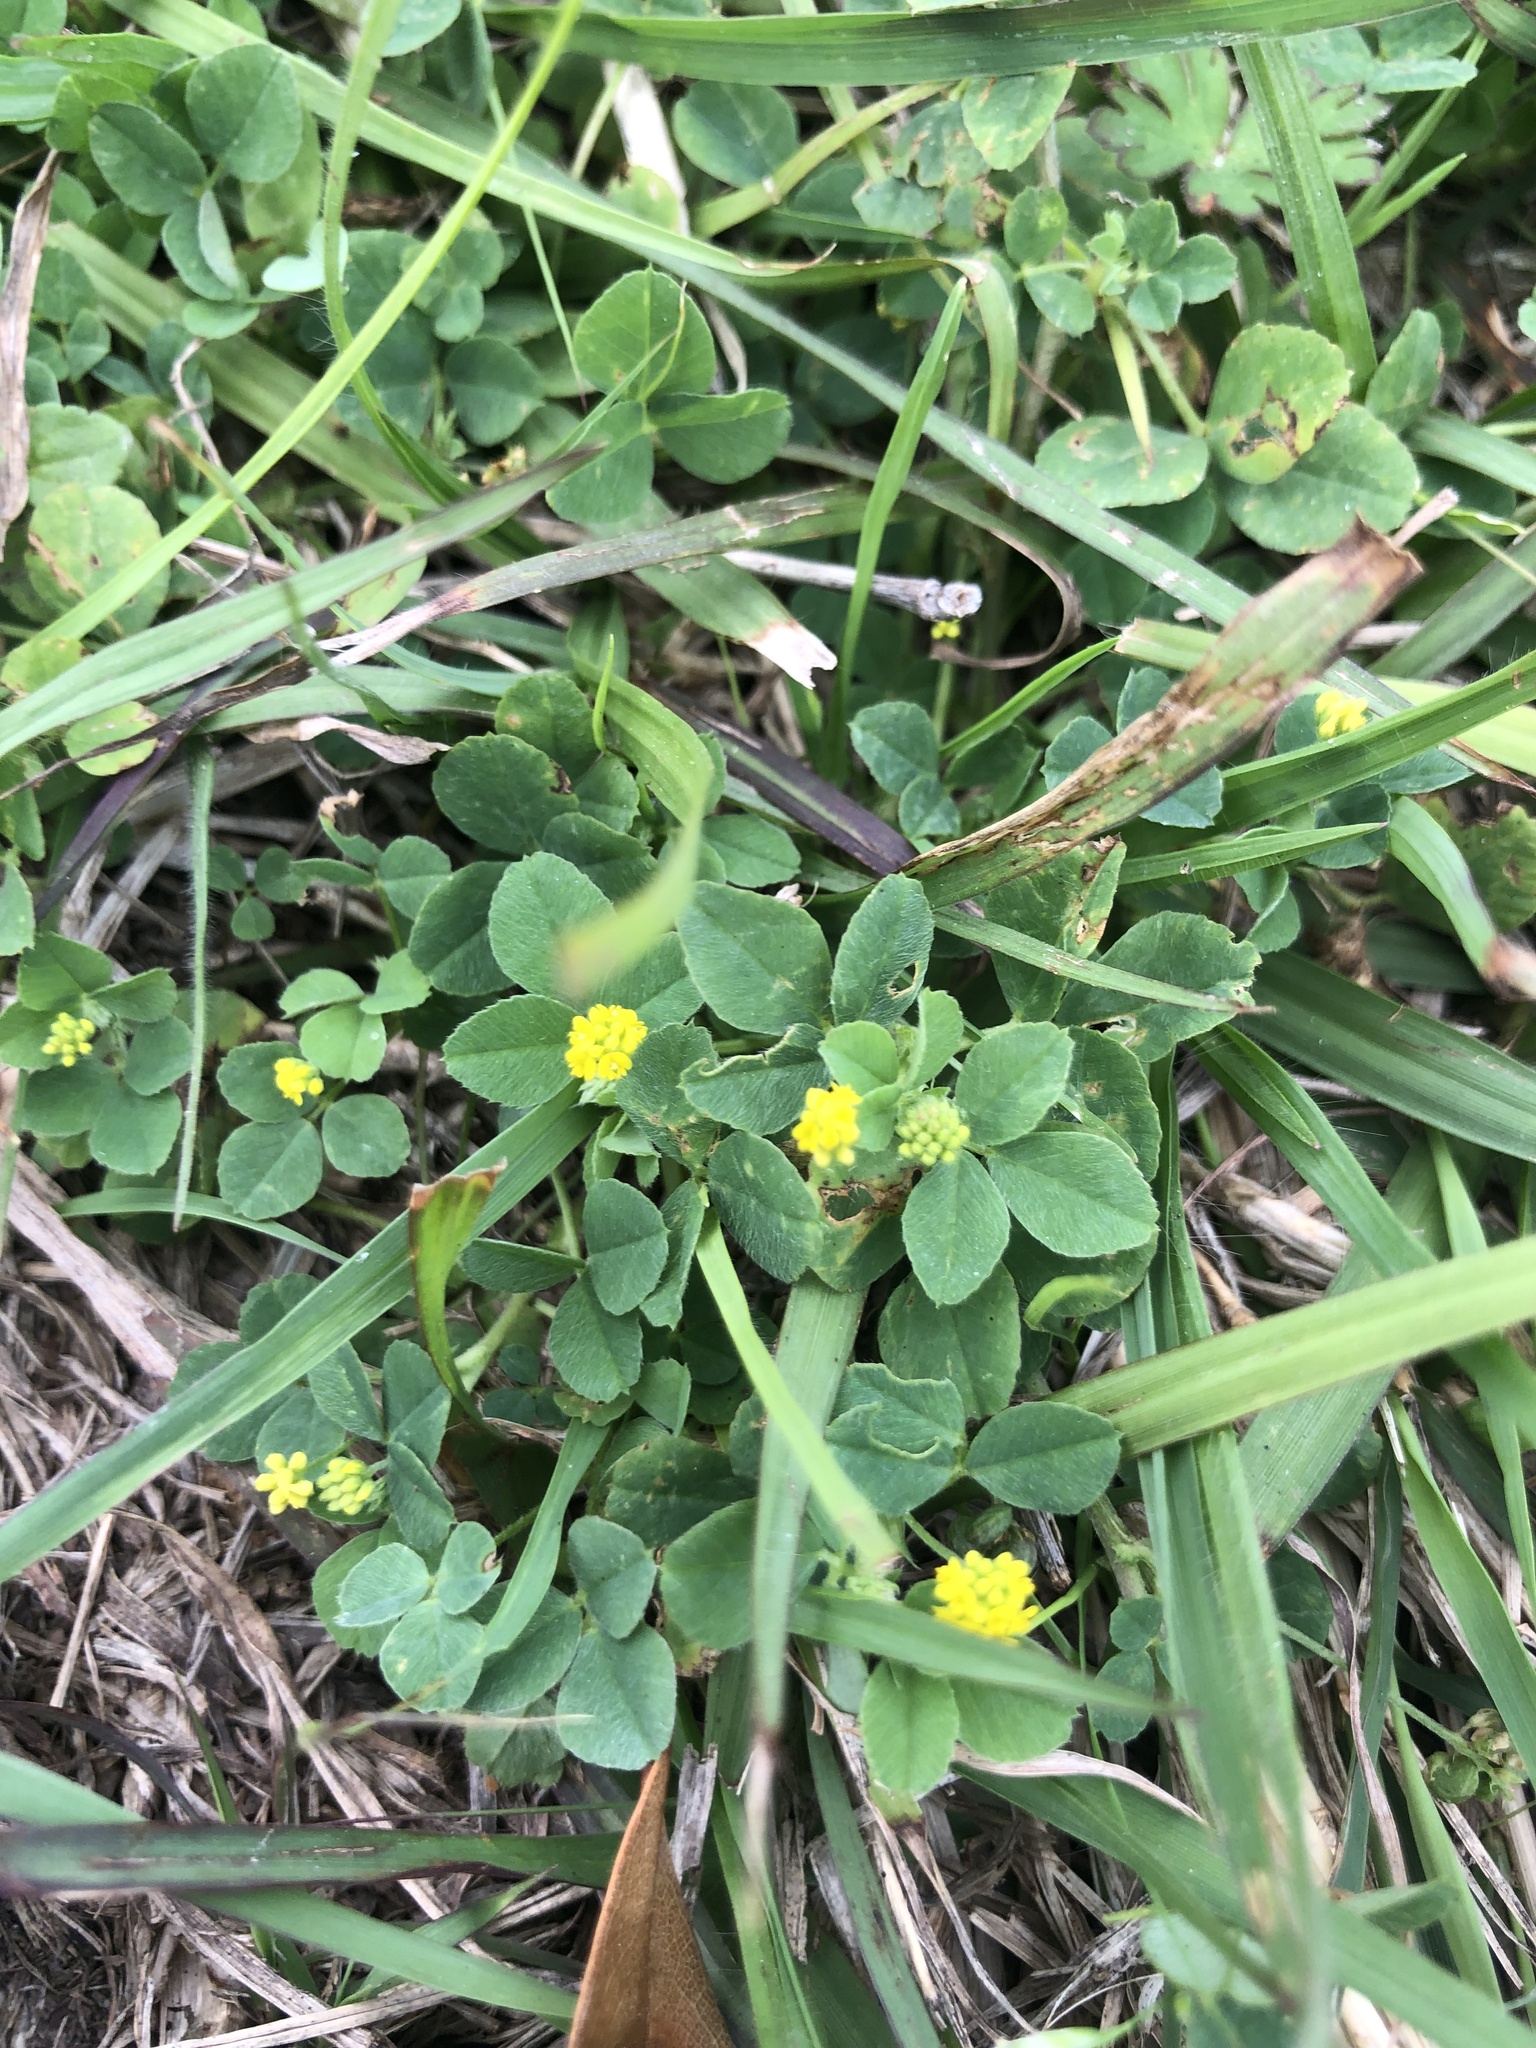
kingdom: Plantae
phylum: Tracheophyta
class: Magnoliopsida
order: Fabales
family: Fabaceae
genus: Medicago
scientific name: Medicago lupulina
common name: Black medick
